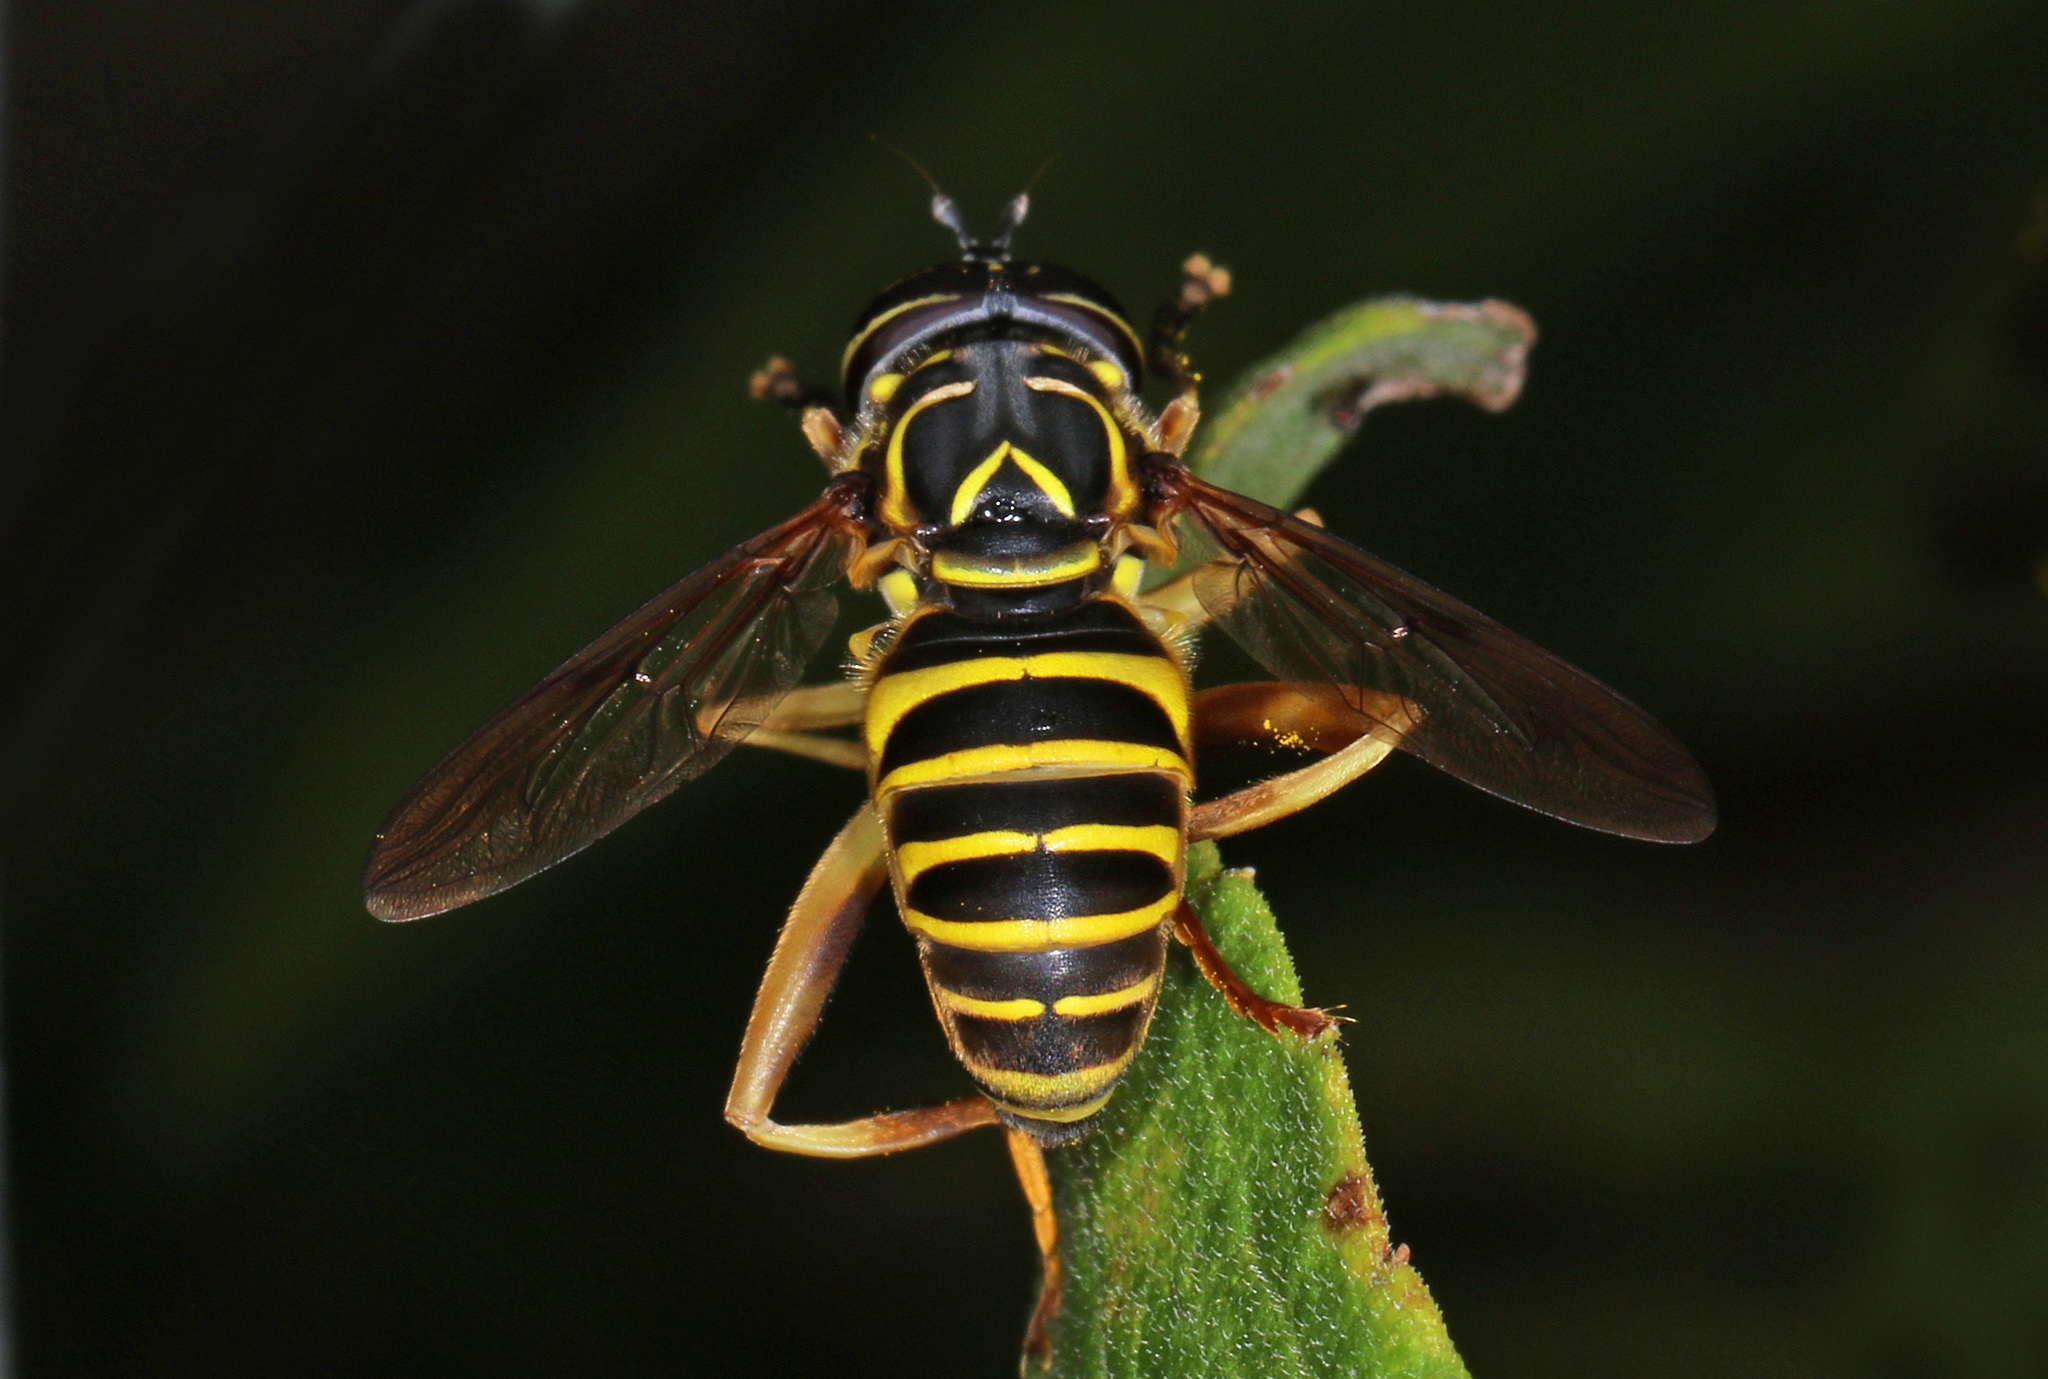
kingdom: Animalia
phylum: Arthropoda
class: Insecta
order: Diptera
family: Syrphidae
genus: Spilomyia
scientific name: Spilomyia longicornis
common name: Eastern hornet fly
